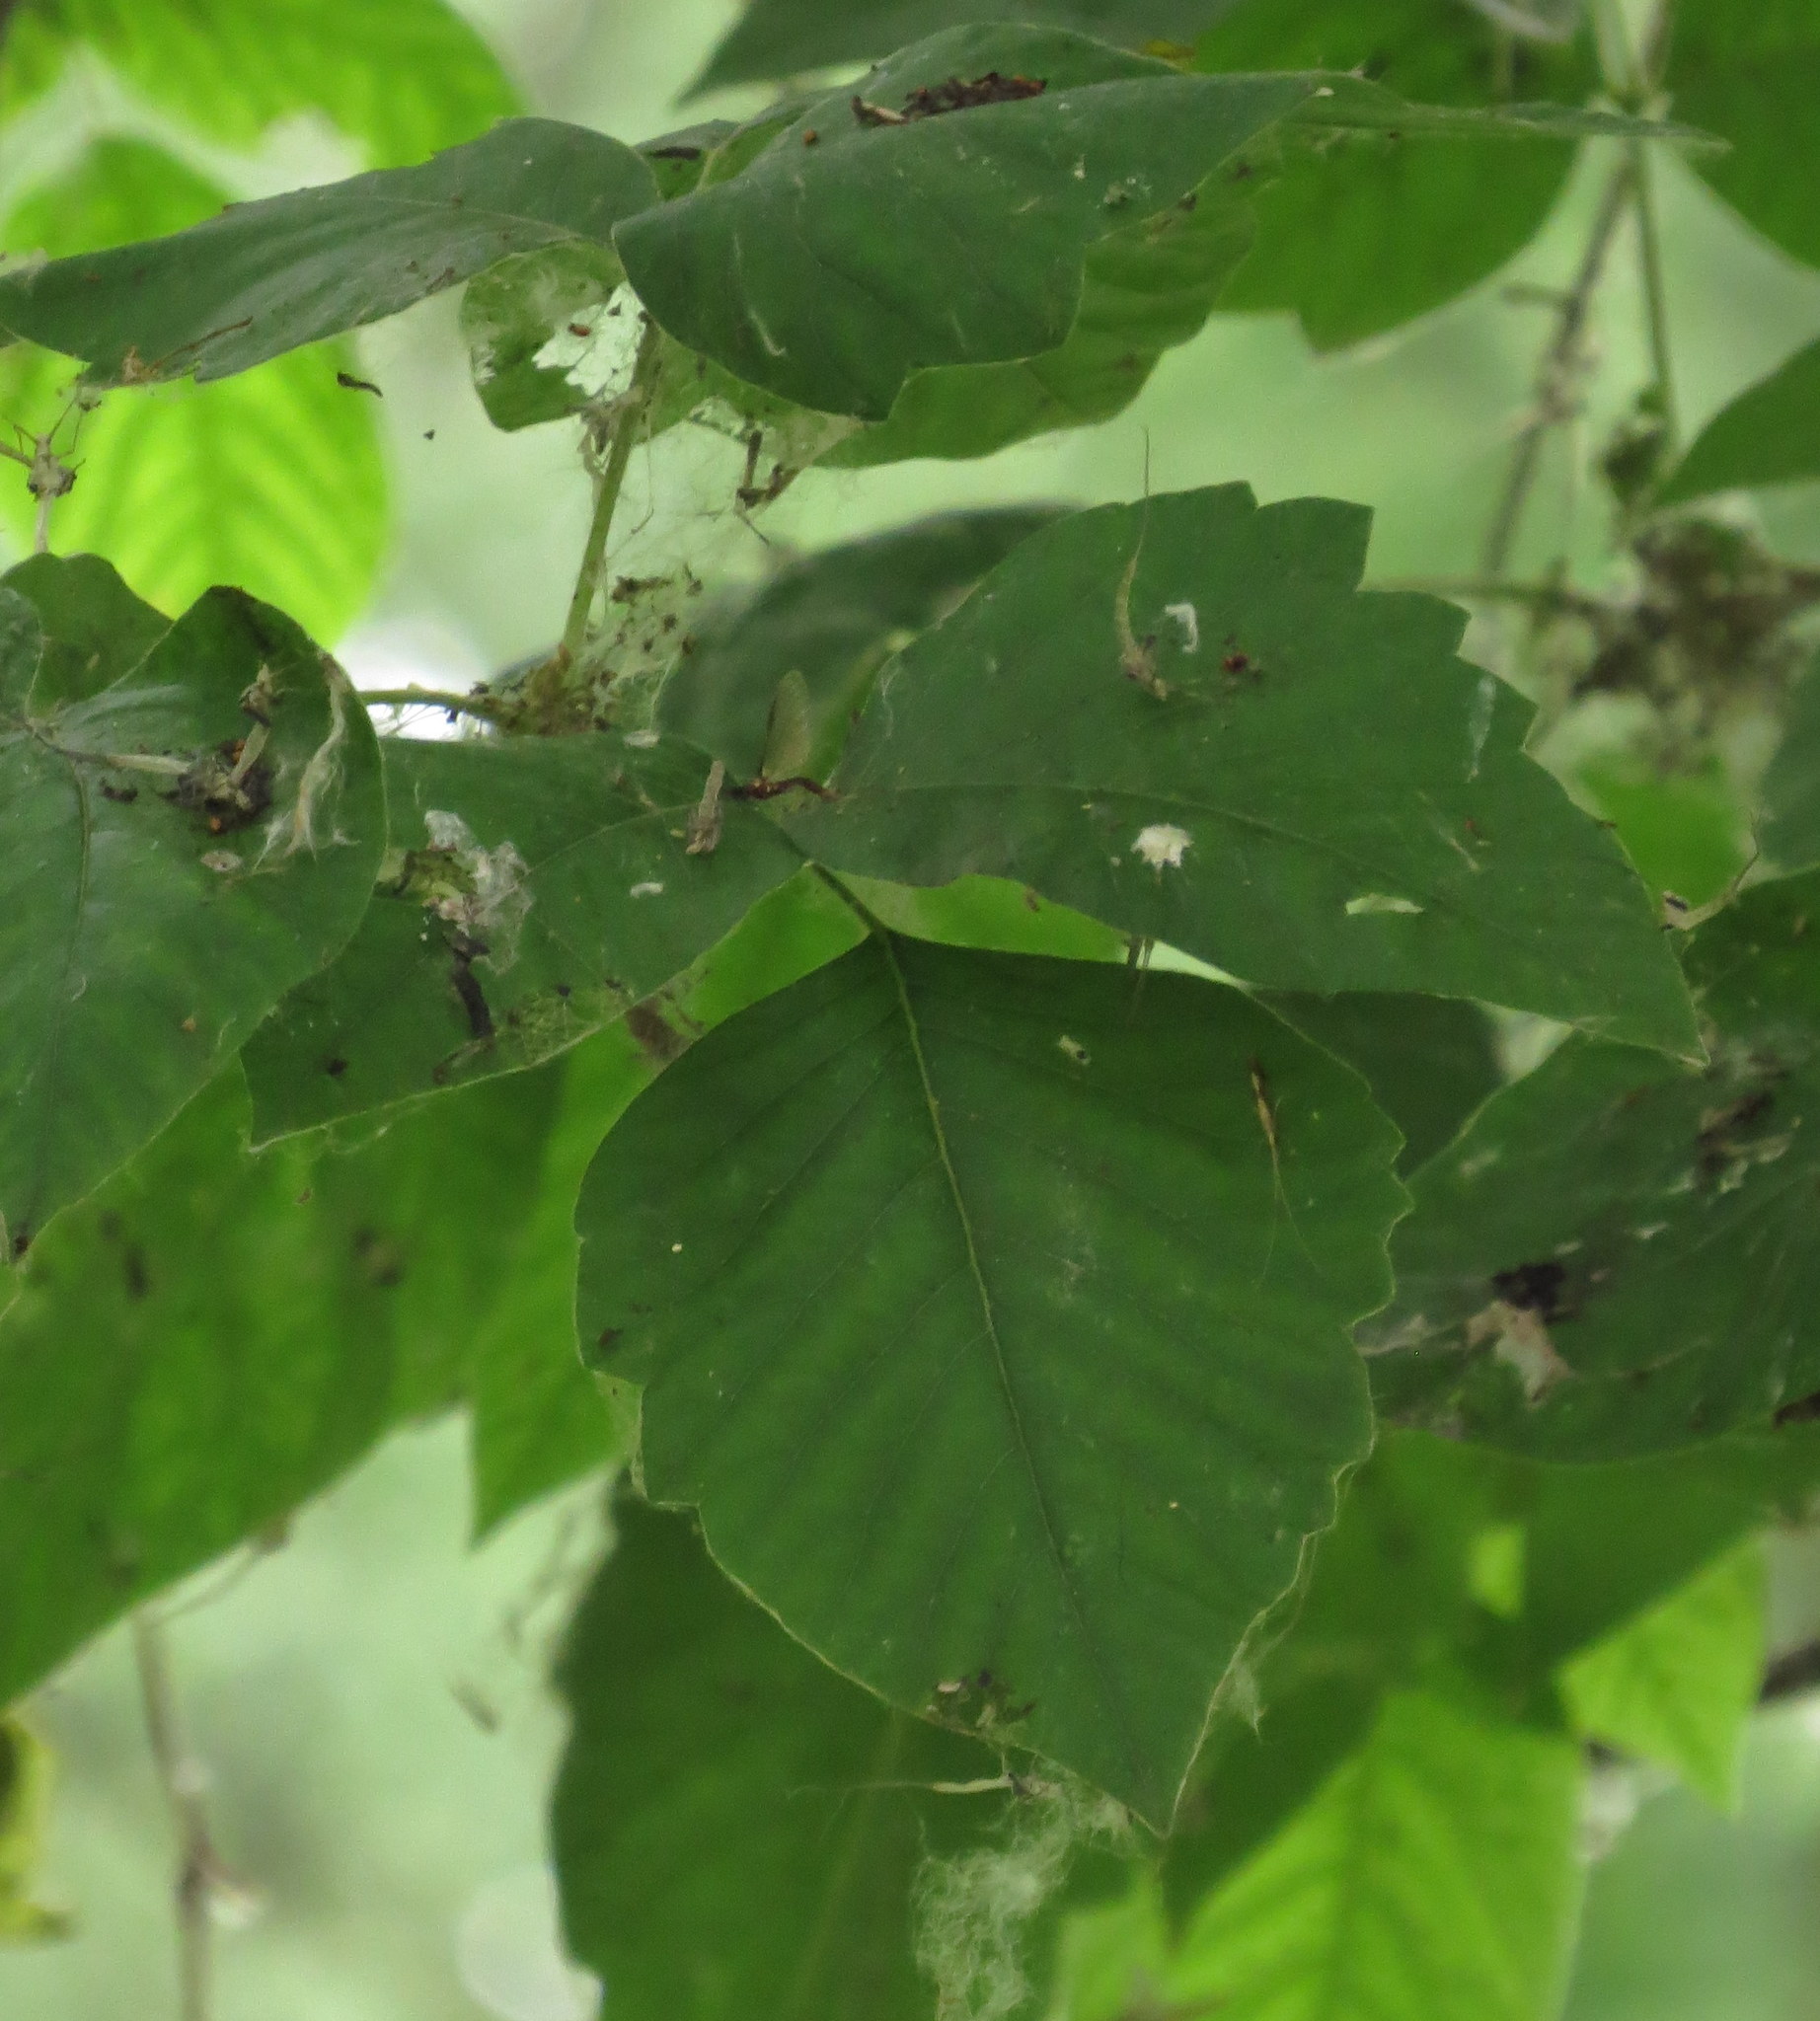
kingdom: Plantae
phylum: Tracheophyta
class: Magnoliopsida
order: Sapindales
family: Anacardiaceae
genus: Toxicodendron
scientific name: Toxicodendron radicans
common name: Poison ivy
